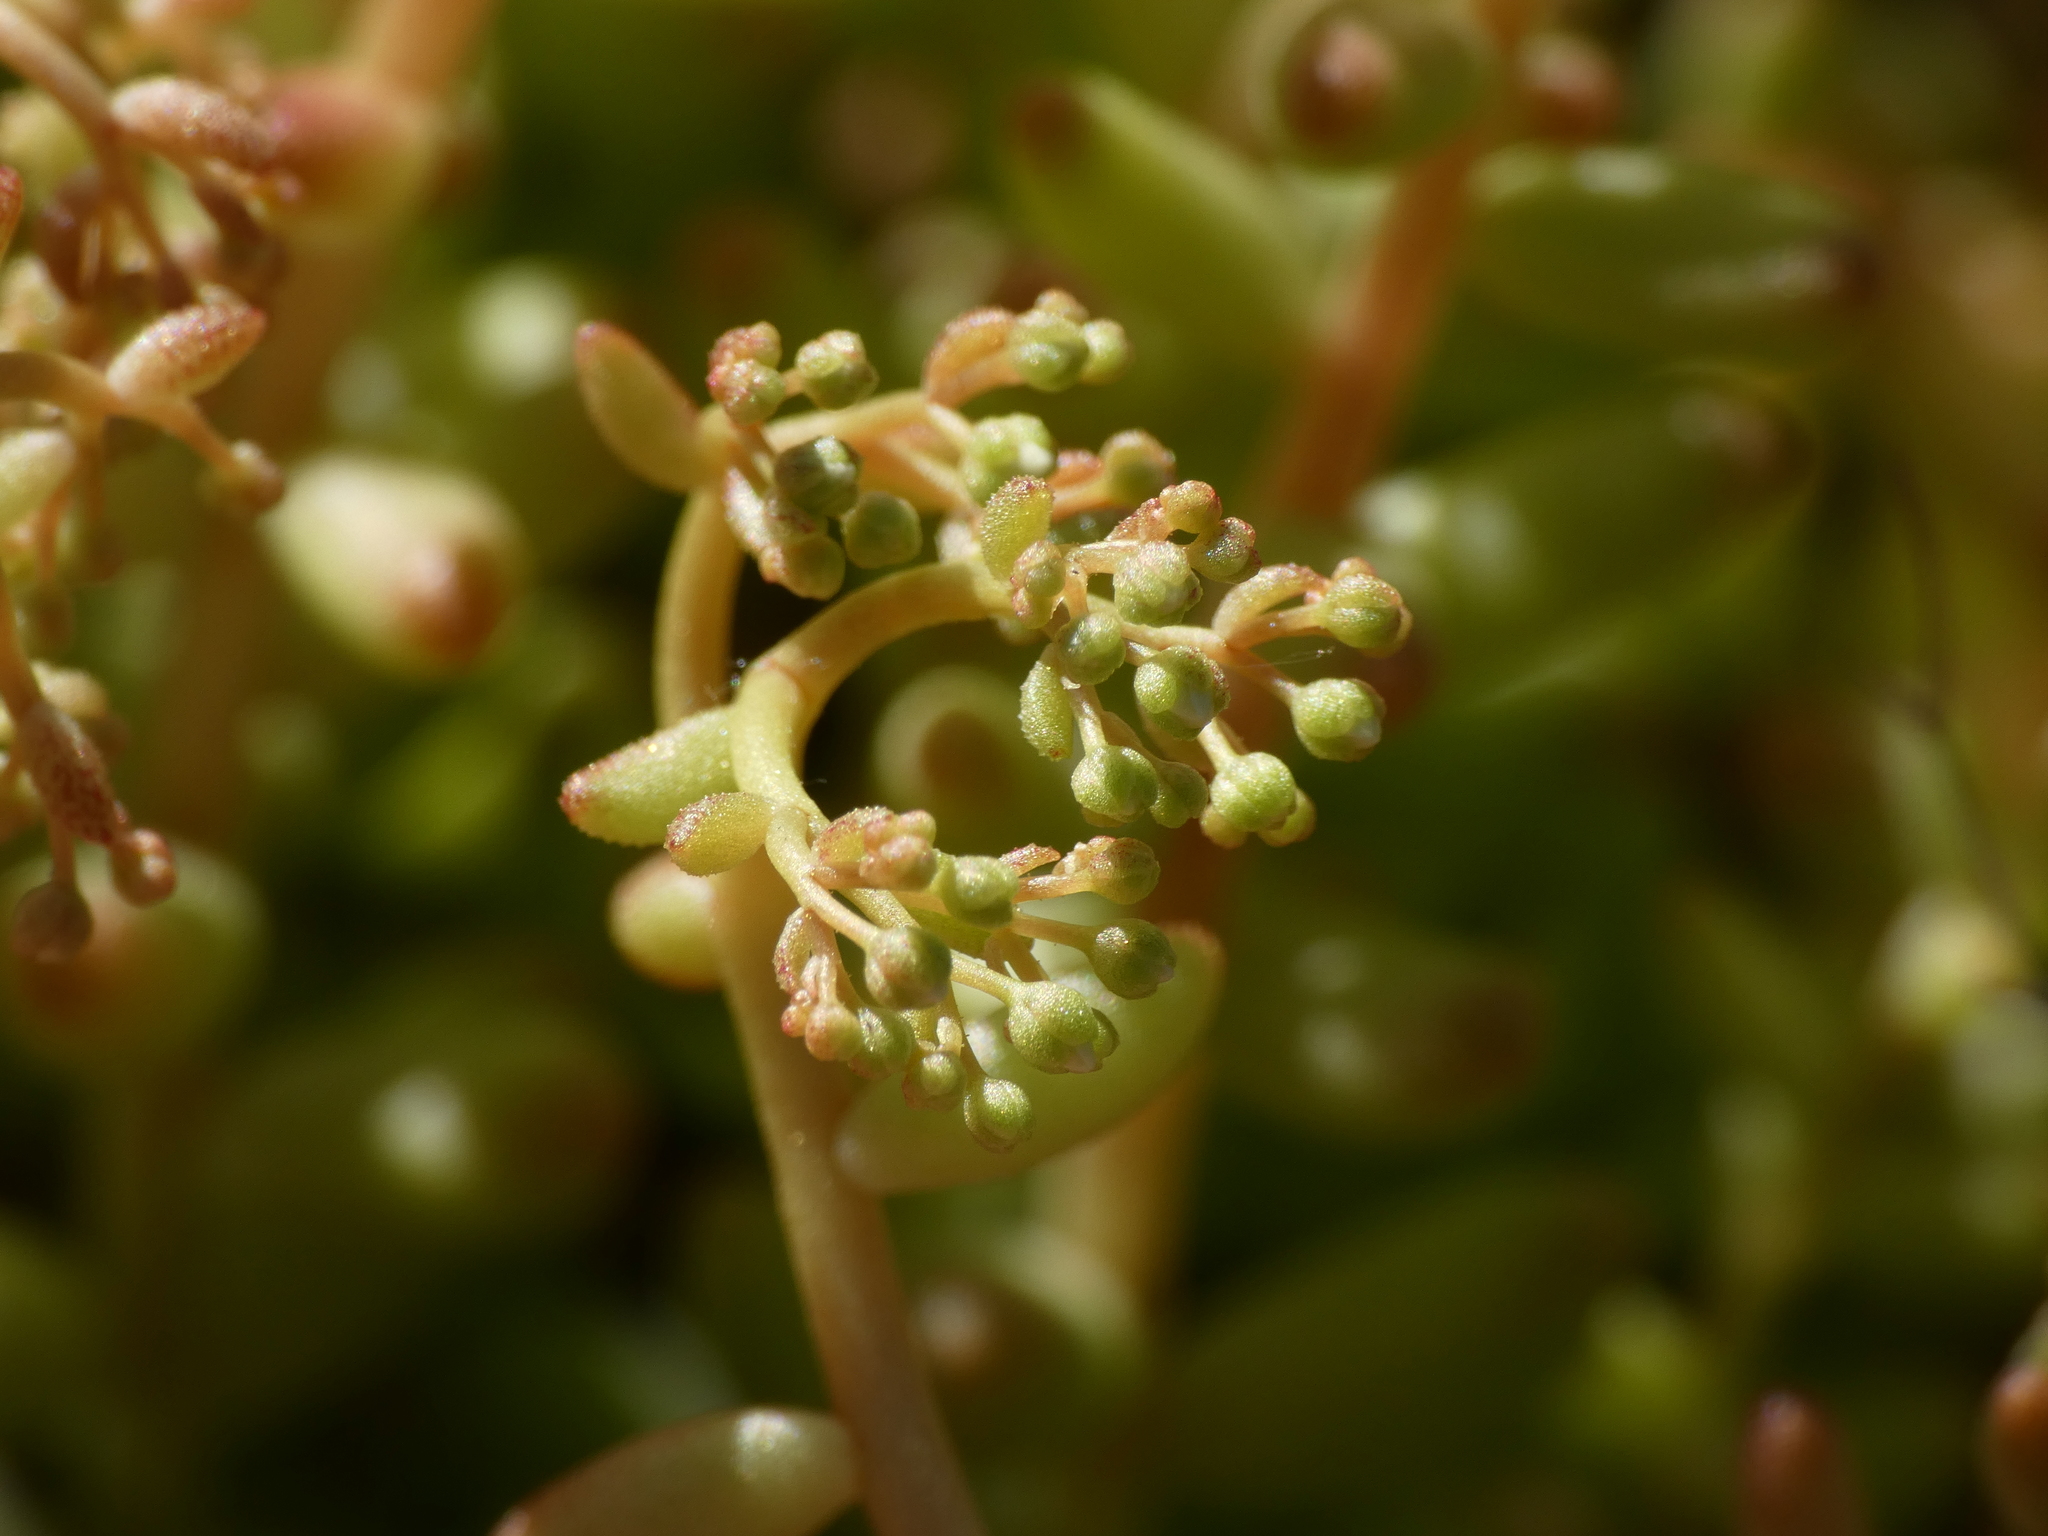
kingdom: Plantae
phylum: Tracheophyta
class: Magnoliopsida
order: Saxifragales
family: Crassulaceae
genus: Sedum
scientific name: Sedum album
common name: White stonecrop
